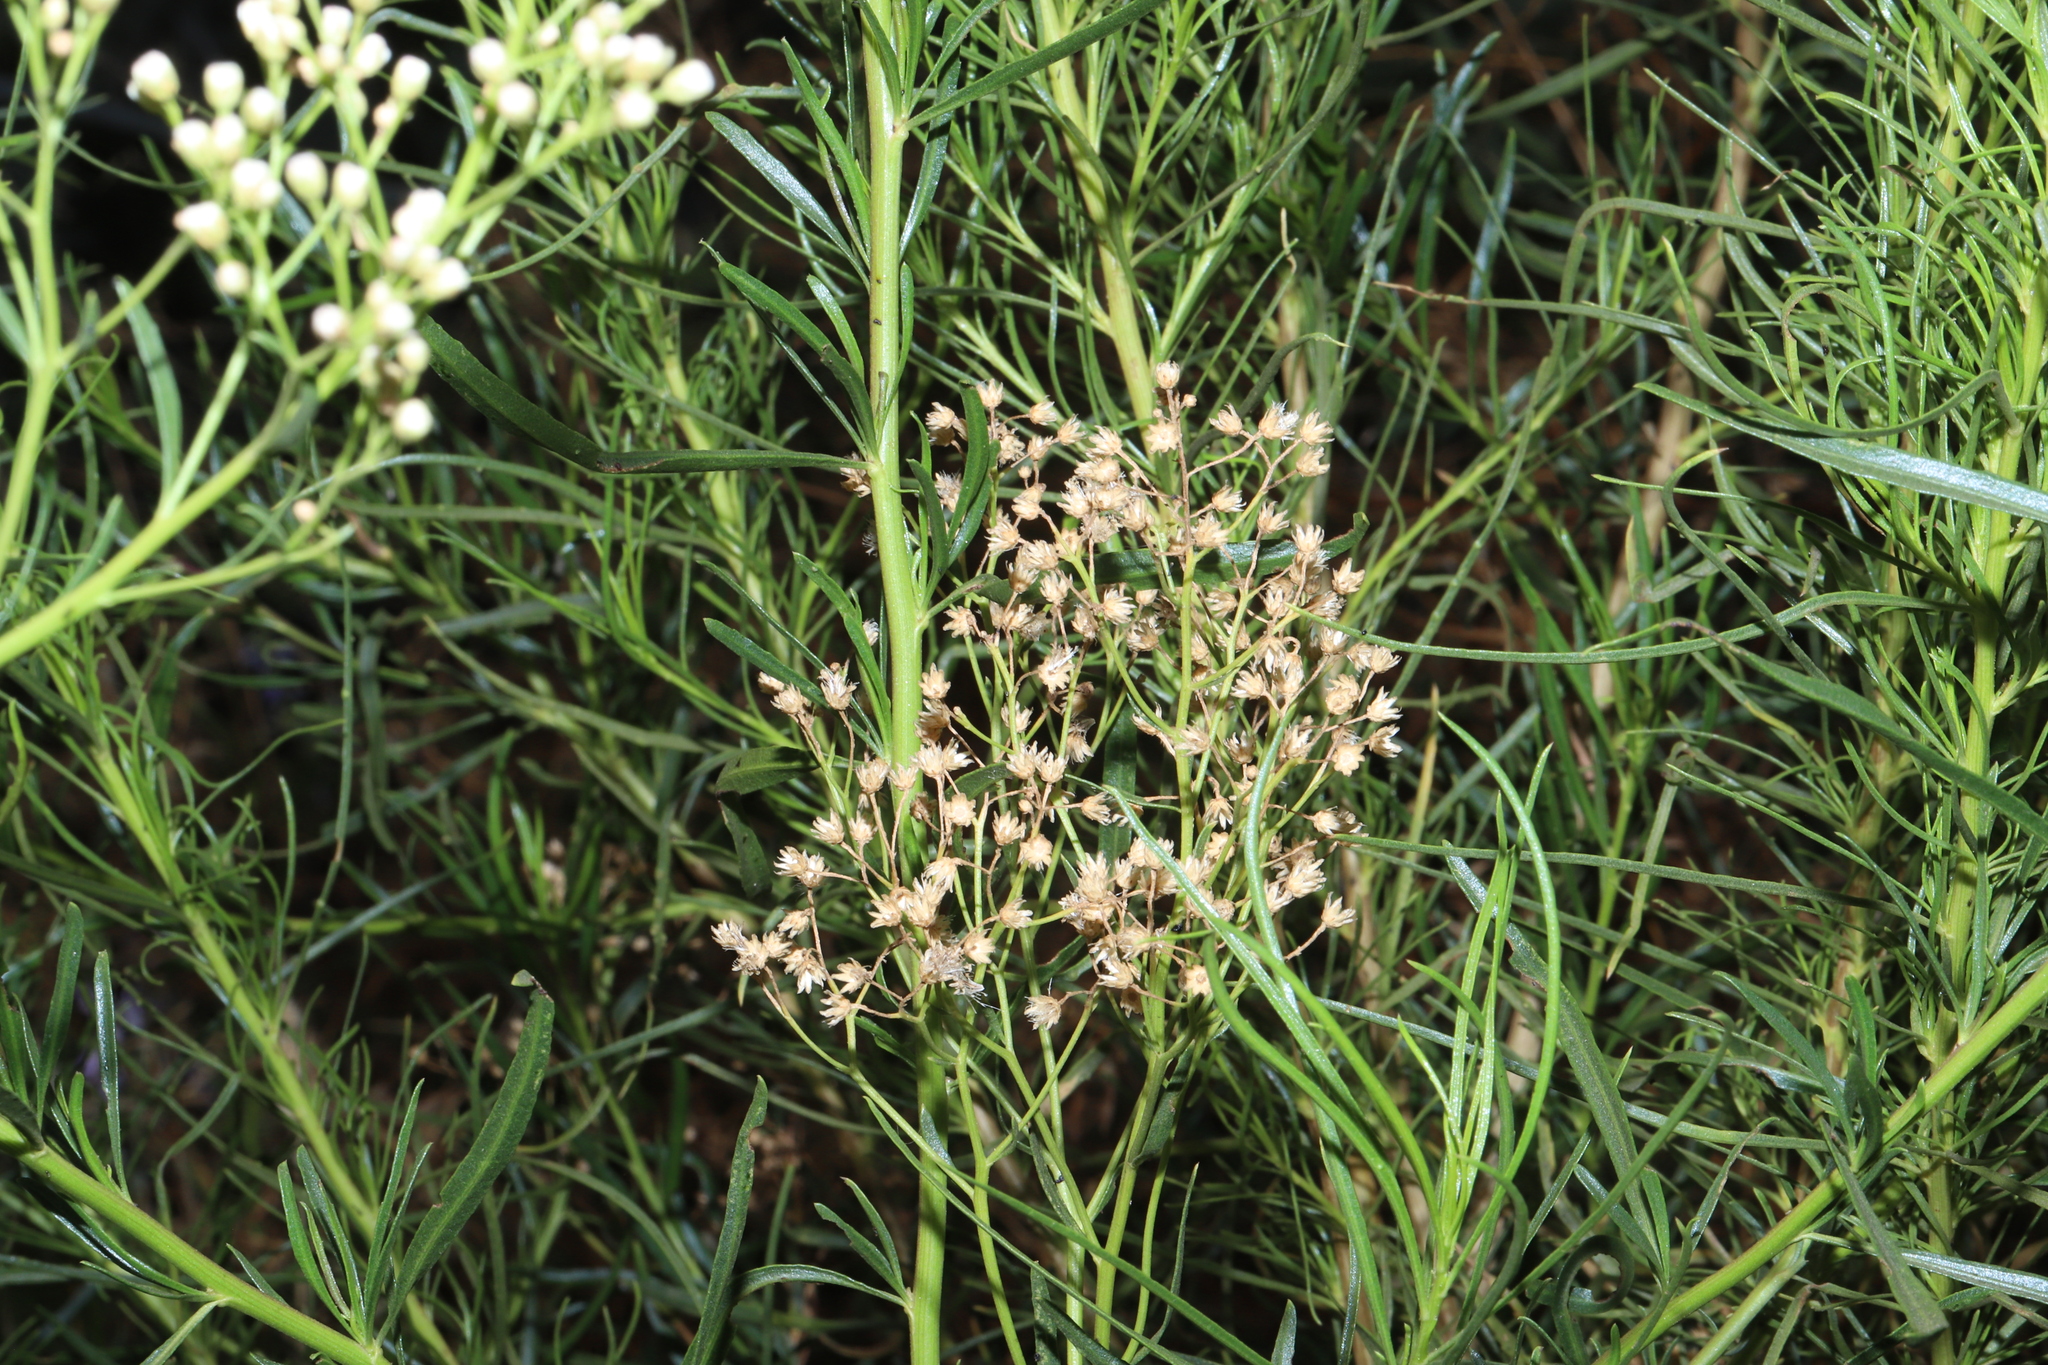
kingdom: Plantae
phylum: Tracheophyta
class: Magnoliopsida
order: Asterales
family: Asteraceae
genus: Baccharis
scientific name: Baccharis salicifolia
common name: Sticky baccharis
